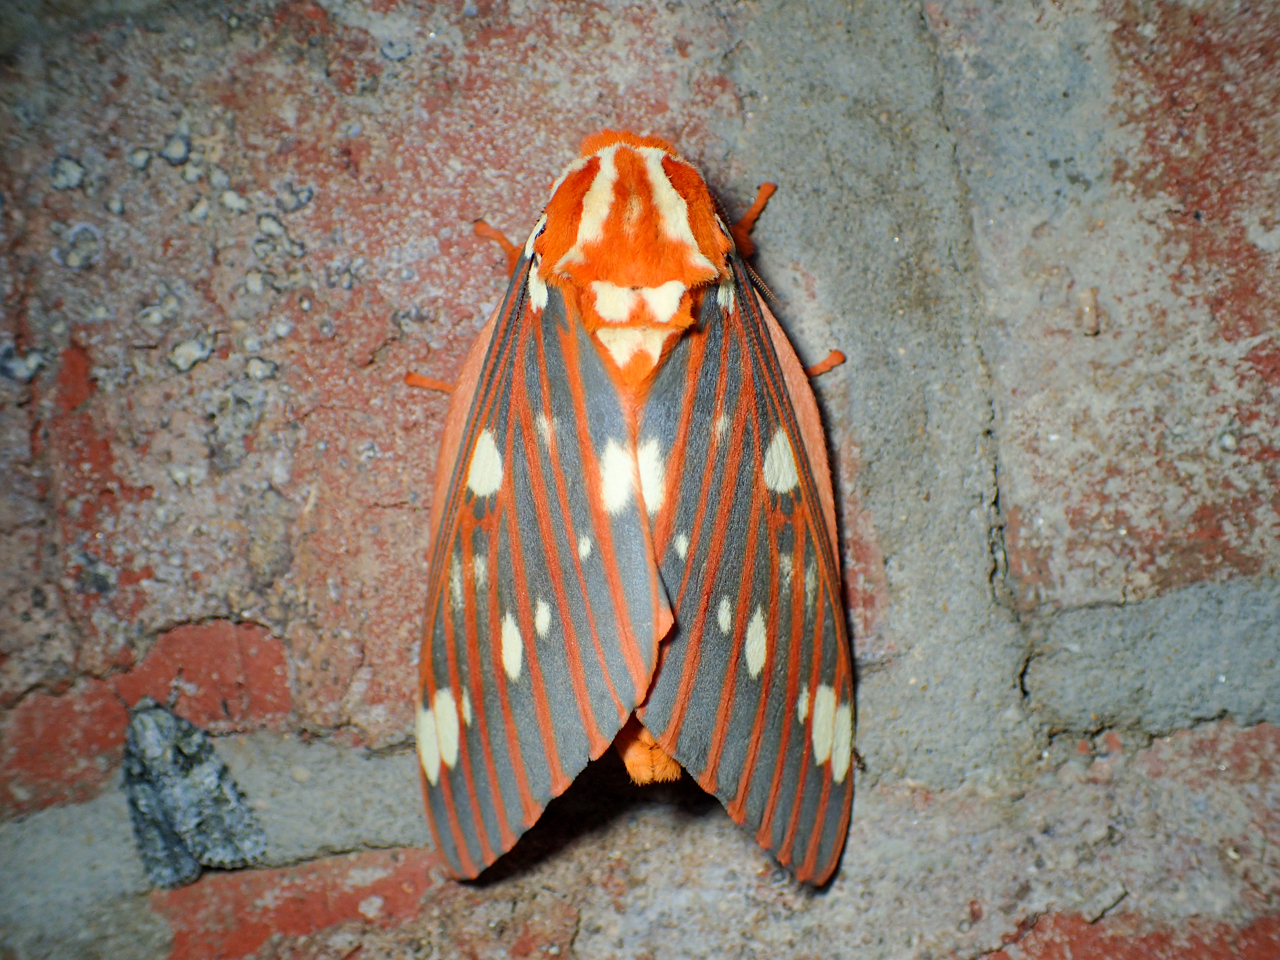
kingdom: Animalia
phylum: Arthropoda
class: Insecta
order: Lepidoptera
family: Saturniidae
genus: Citheronia
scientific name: Citheronia regalis
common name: Hickory horned devil
